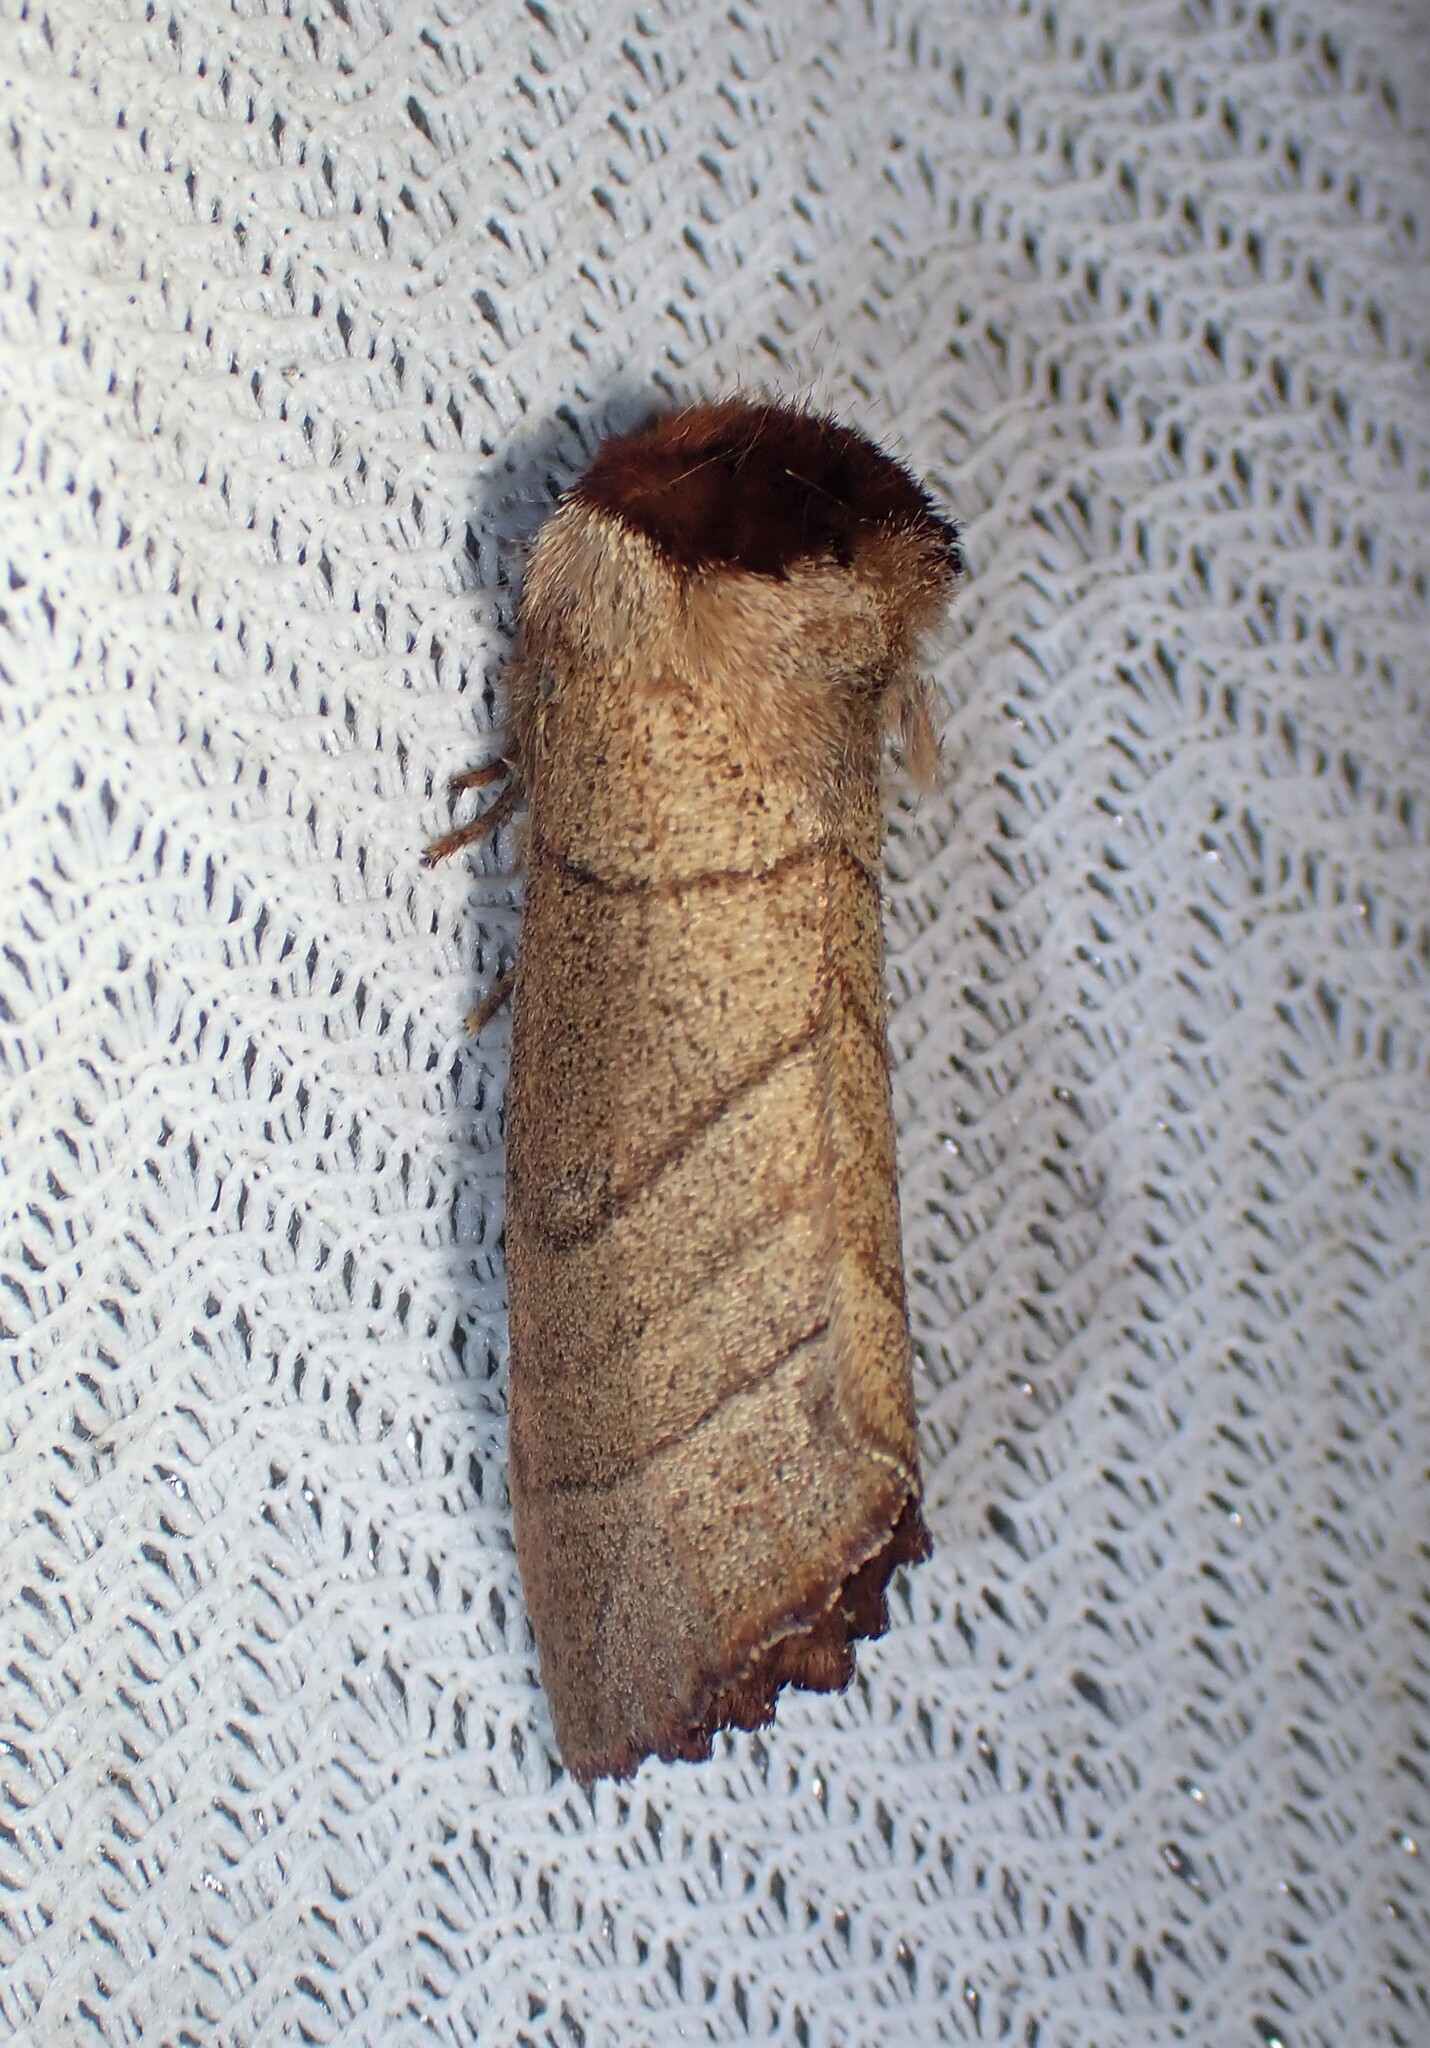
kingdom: Animalia
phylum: Arthropoda
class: Insecta
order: Lepidoptera
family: Notodontidae
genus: Datana
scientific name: Datana ministra
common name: Yellow-necked caterpillar moth
